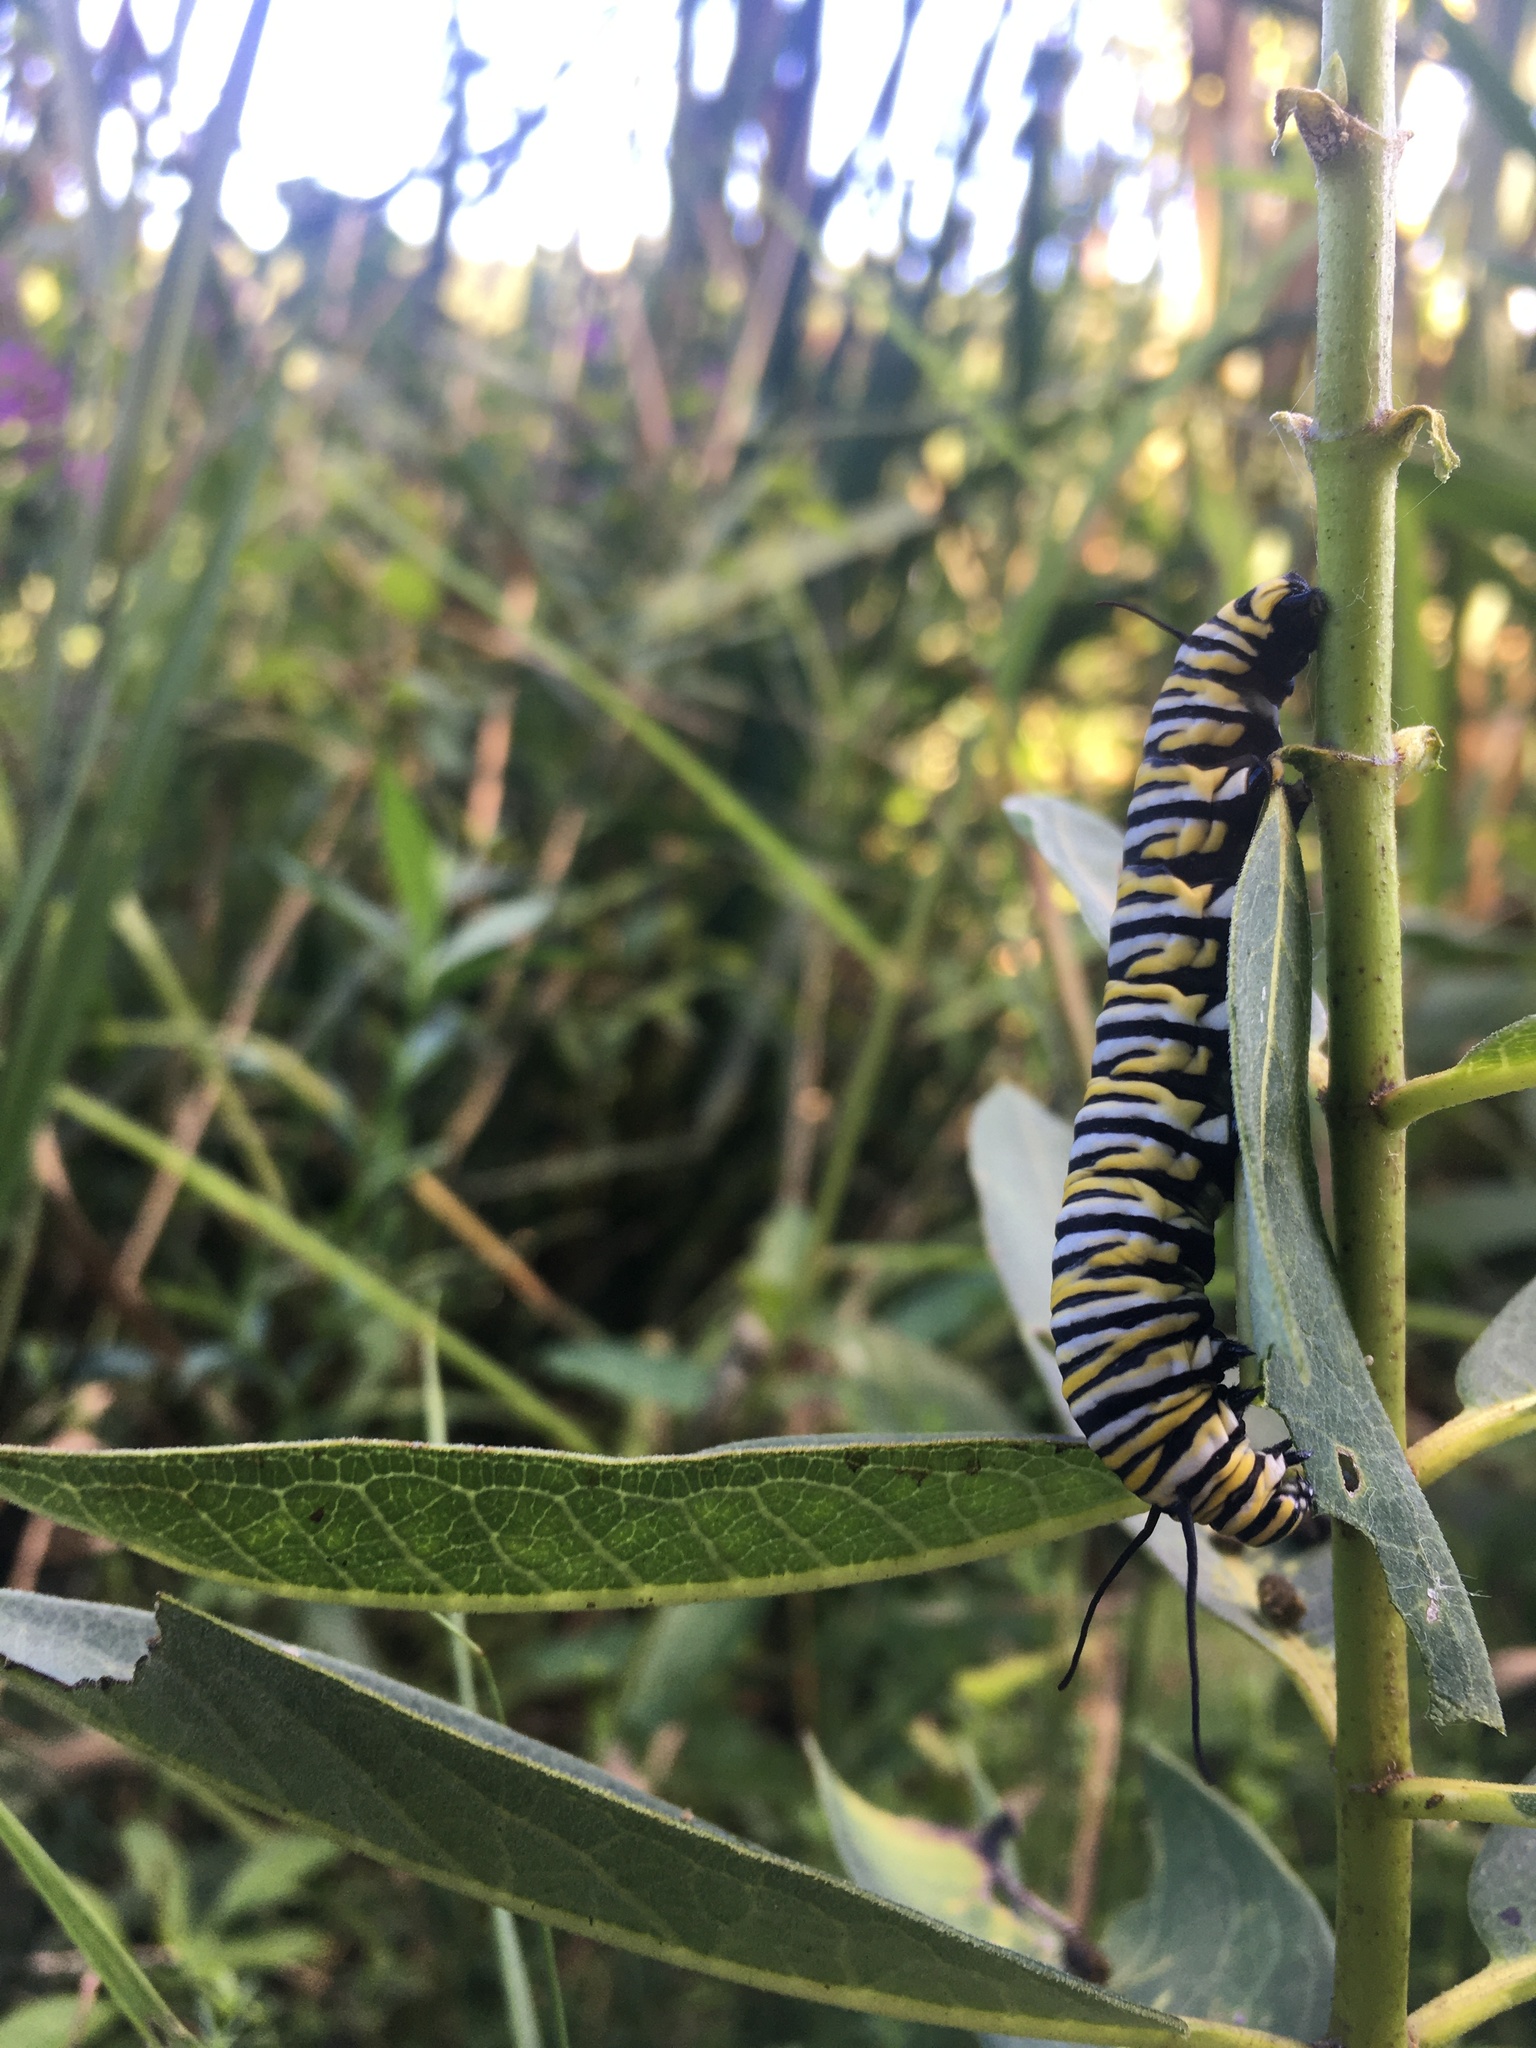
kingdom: Animalia
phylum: Arthropoda
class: Insecta
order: Lepidoptera
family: Nymphalidae
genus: Danaus
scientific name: Danaus plexippus
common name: Monarch
